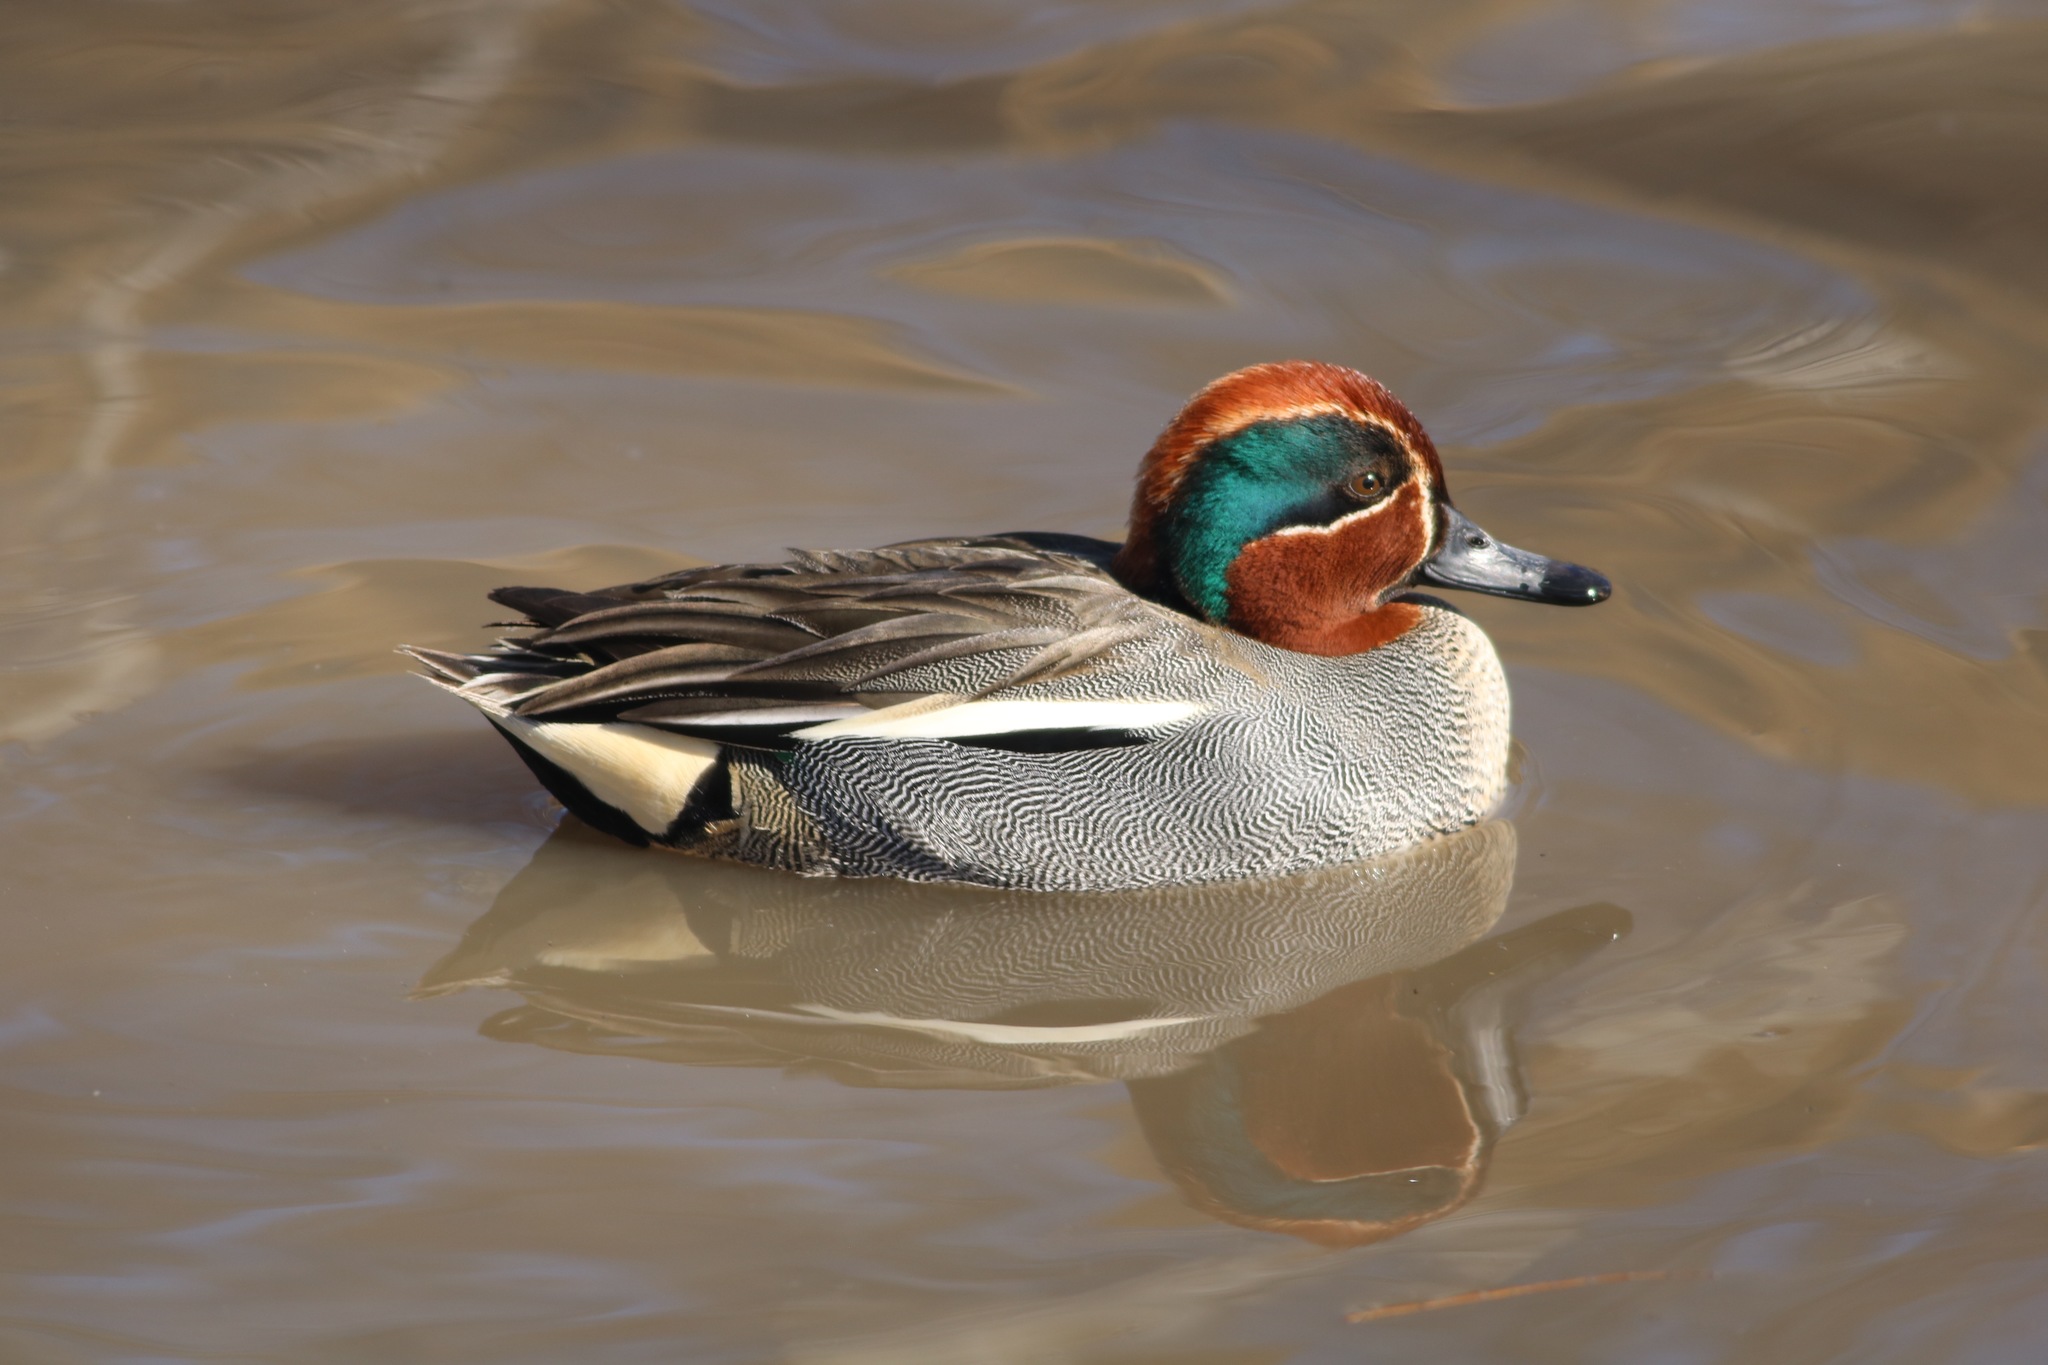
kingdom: Animalia
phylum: Chordata
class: Aves
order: Anseriformes
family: Anatidae
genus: Anas
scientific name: Anas crecca
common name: Eurasian teal
